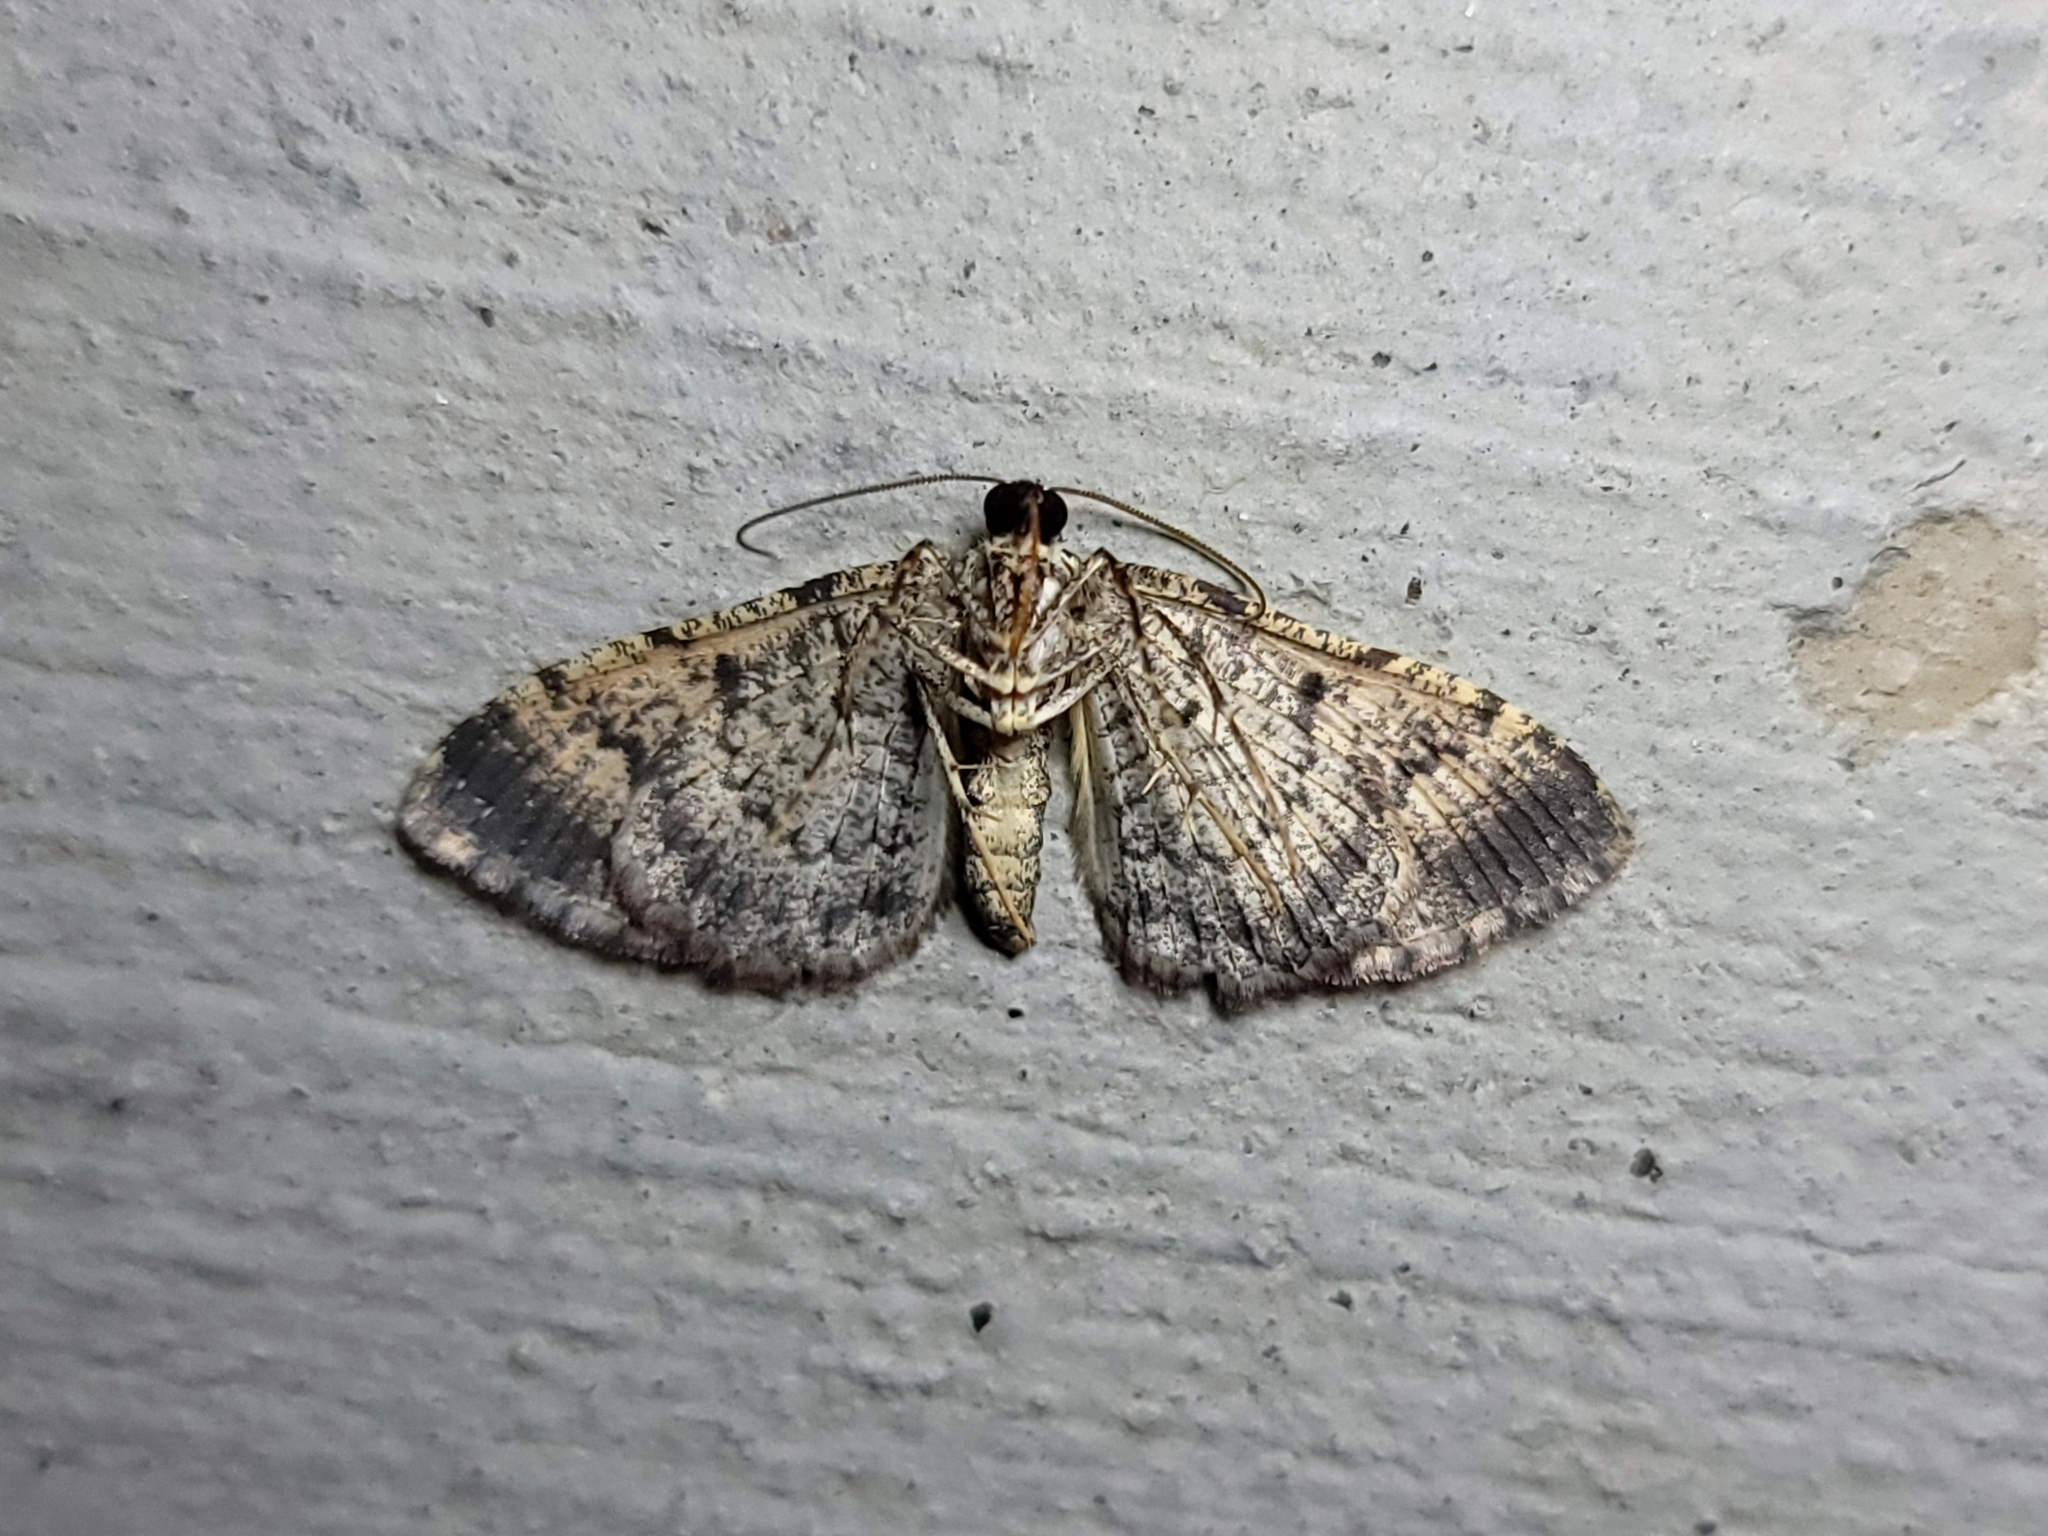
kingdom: Animalia
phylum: Arthropoda
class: Insecta
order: Lepidoptera
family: Geometridae
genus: Disclisioprocta
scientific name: Disclisioprocta stellata
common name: Somber carpet
